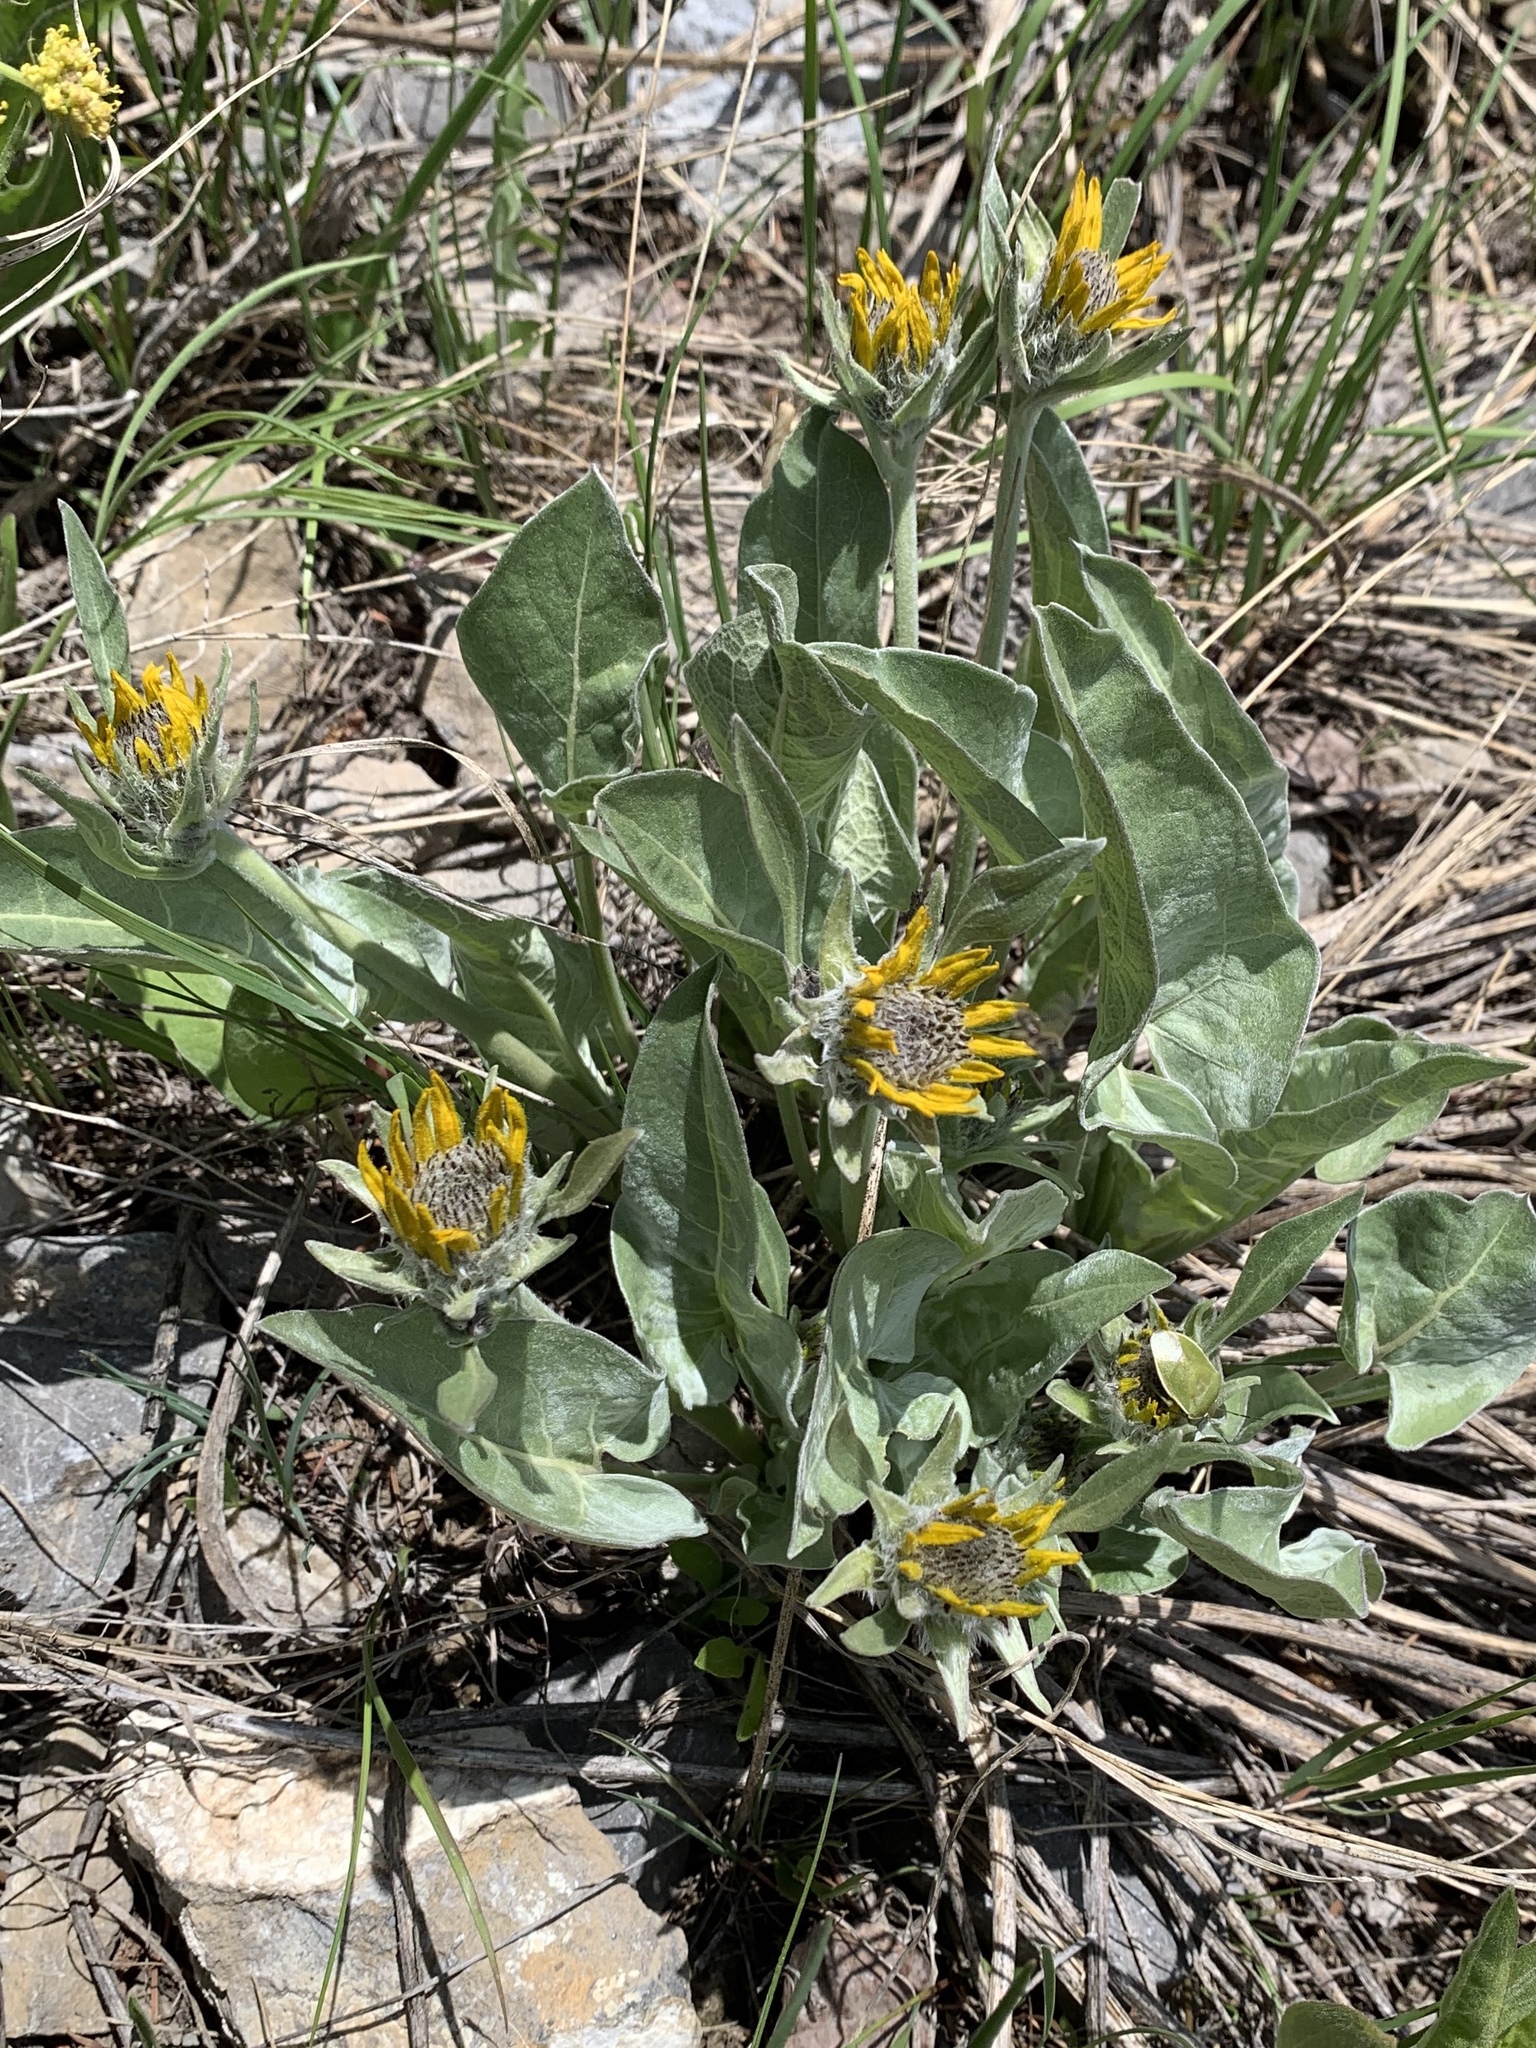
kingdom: Plantae
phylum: Tracheophyta
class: Magnoliopsida
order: Asterales
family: Asteraceae
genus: Wyethia
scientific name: Wyethia sagittata
